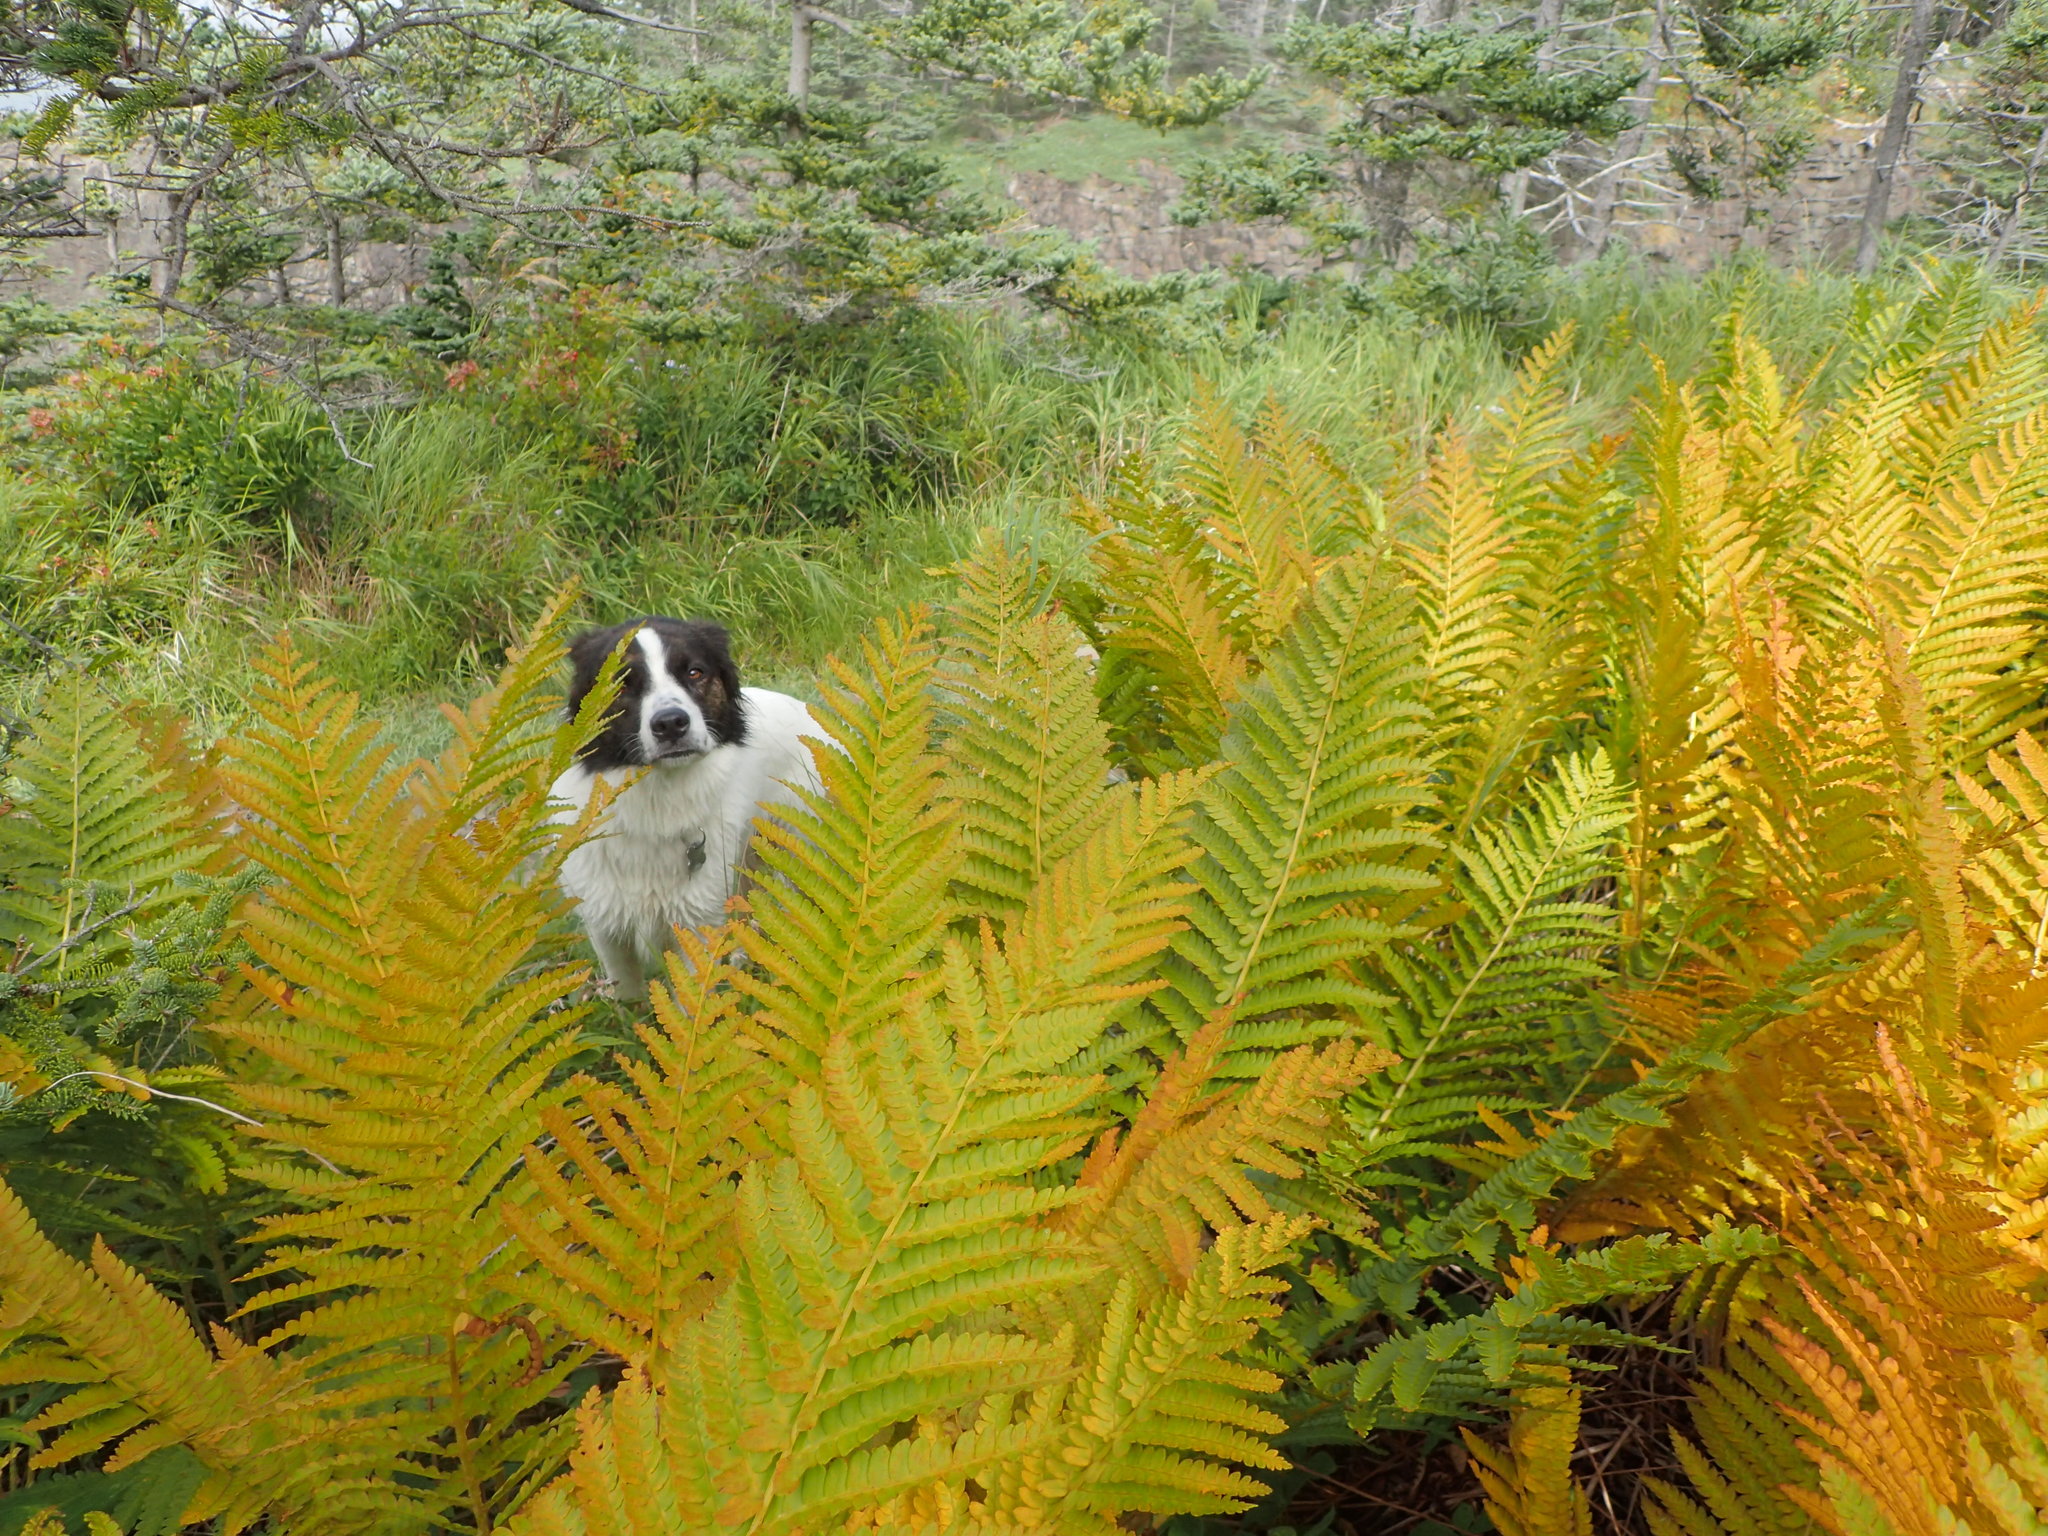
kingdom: Plantae
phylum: Tracheophyta
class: Polypodiopsida
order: Osmundales
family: Osmundaceae
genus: Osmundastrum
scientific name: Osmundastrum cinnamomeum
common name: Cinnamon fern
